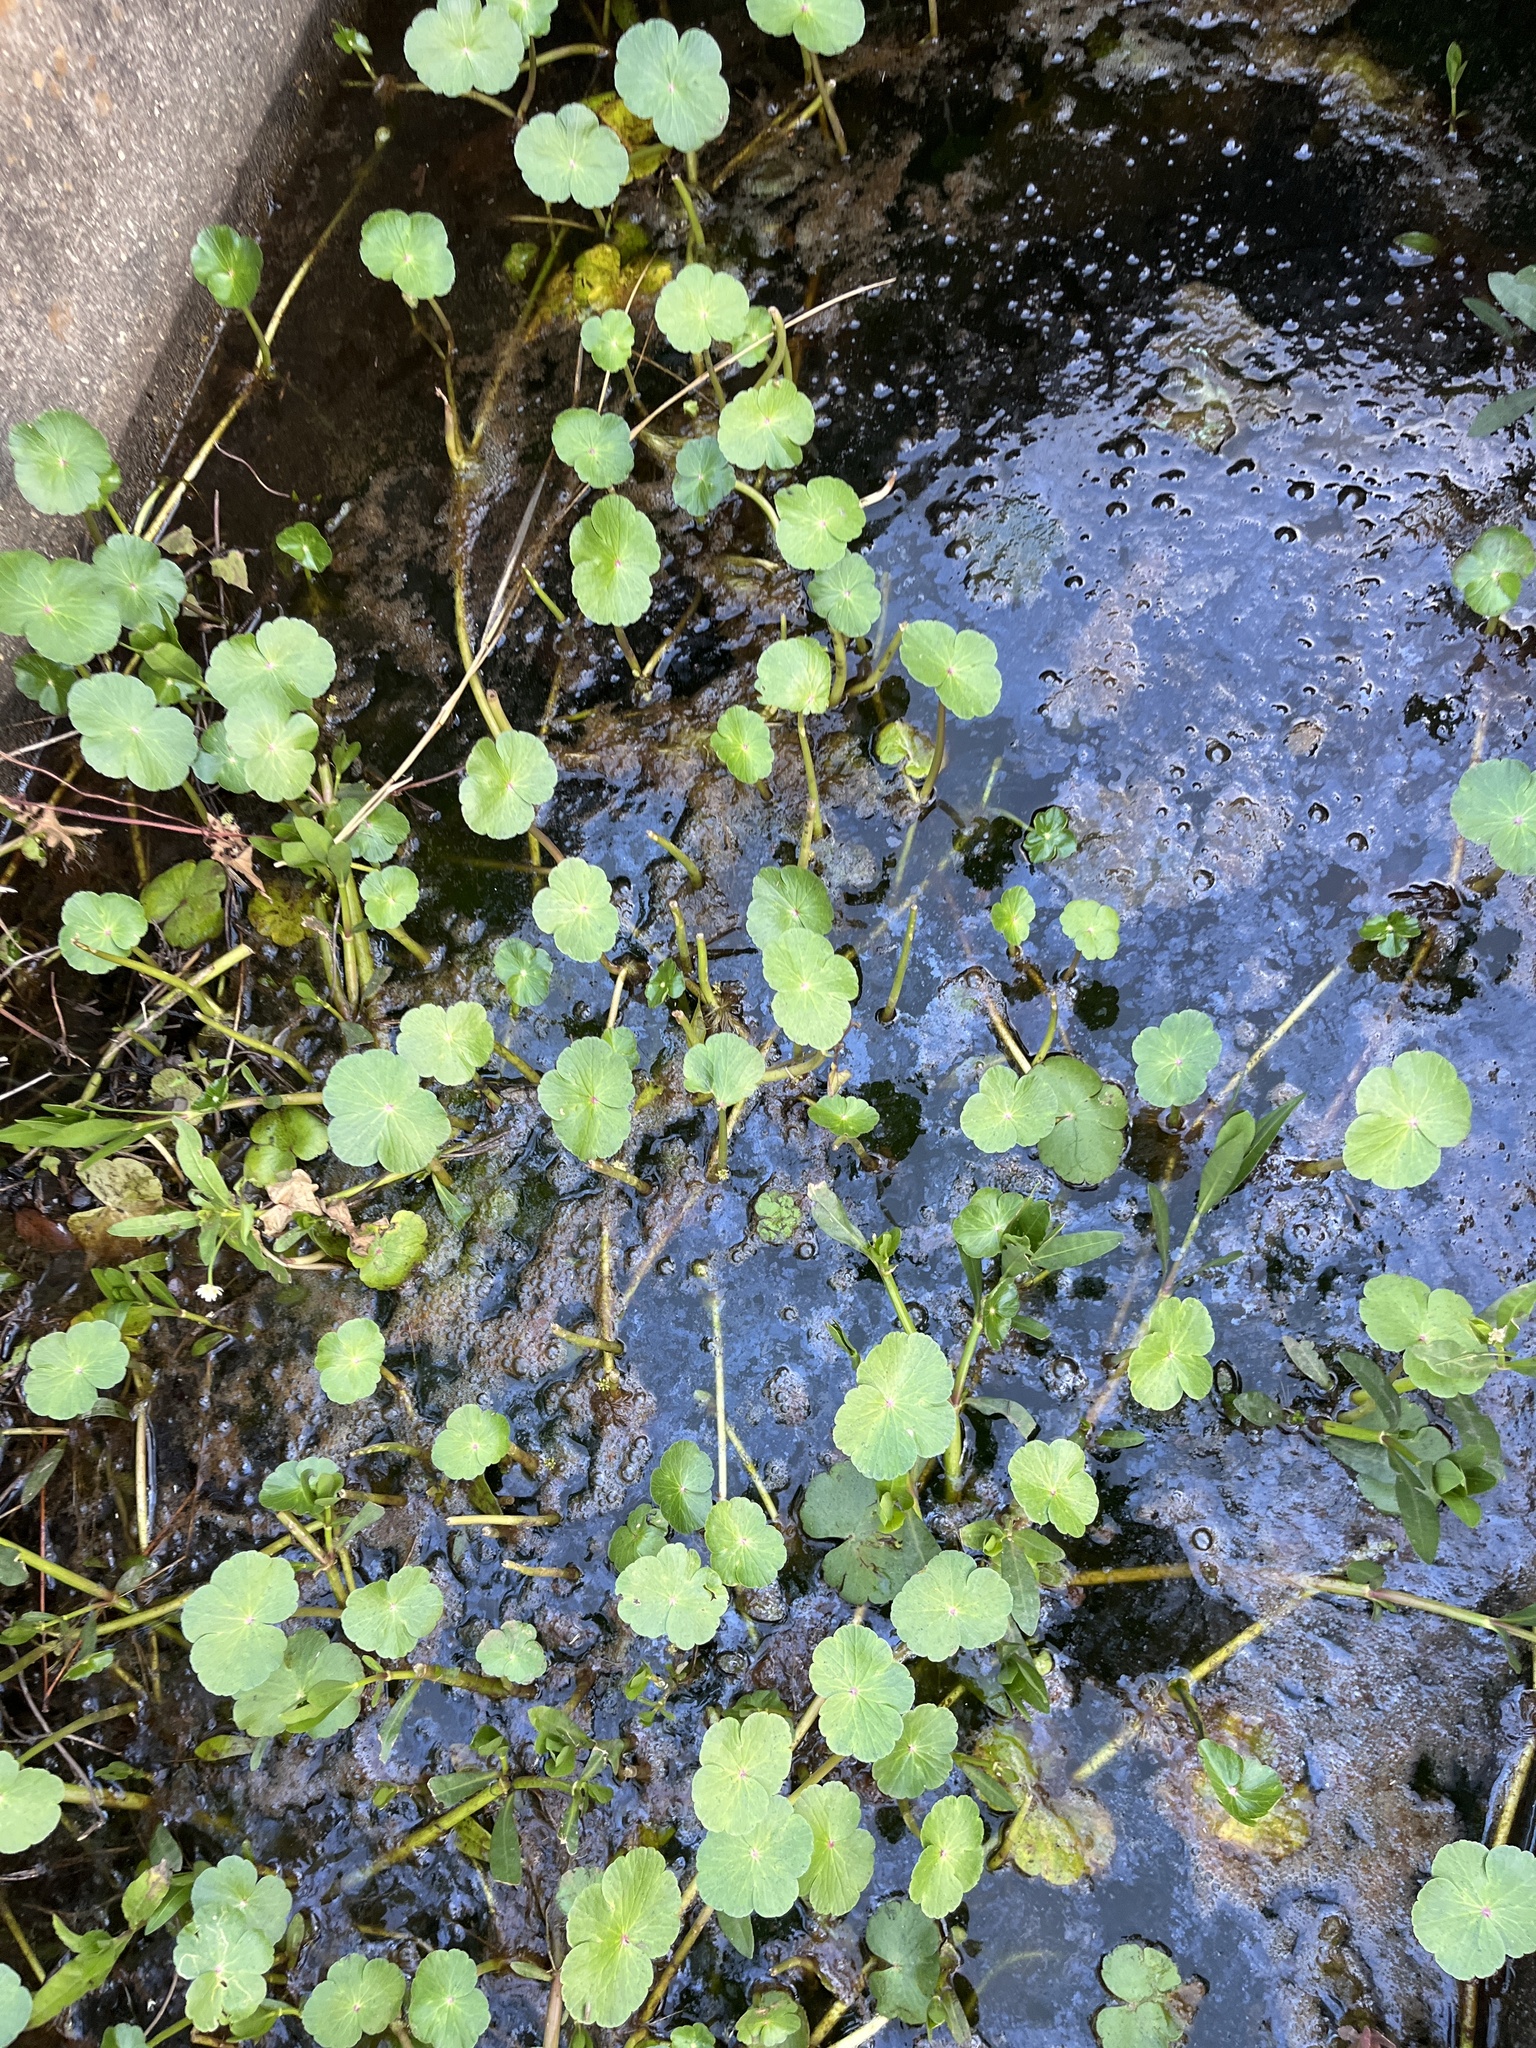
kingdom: Plantae
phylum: Tracheophyta
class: Magnoliopsida
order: Apiales
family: Araliaceae
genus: Hydrocotyle
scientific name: Hydrocotyle ranunculoides
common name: Floating pennywort
